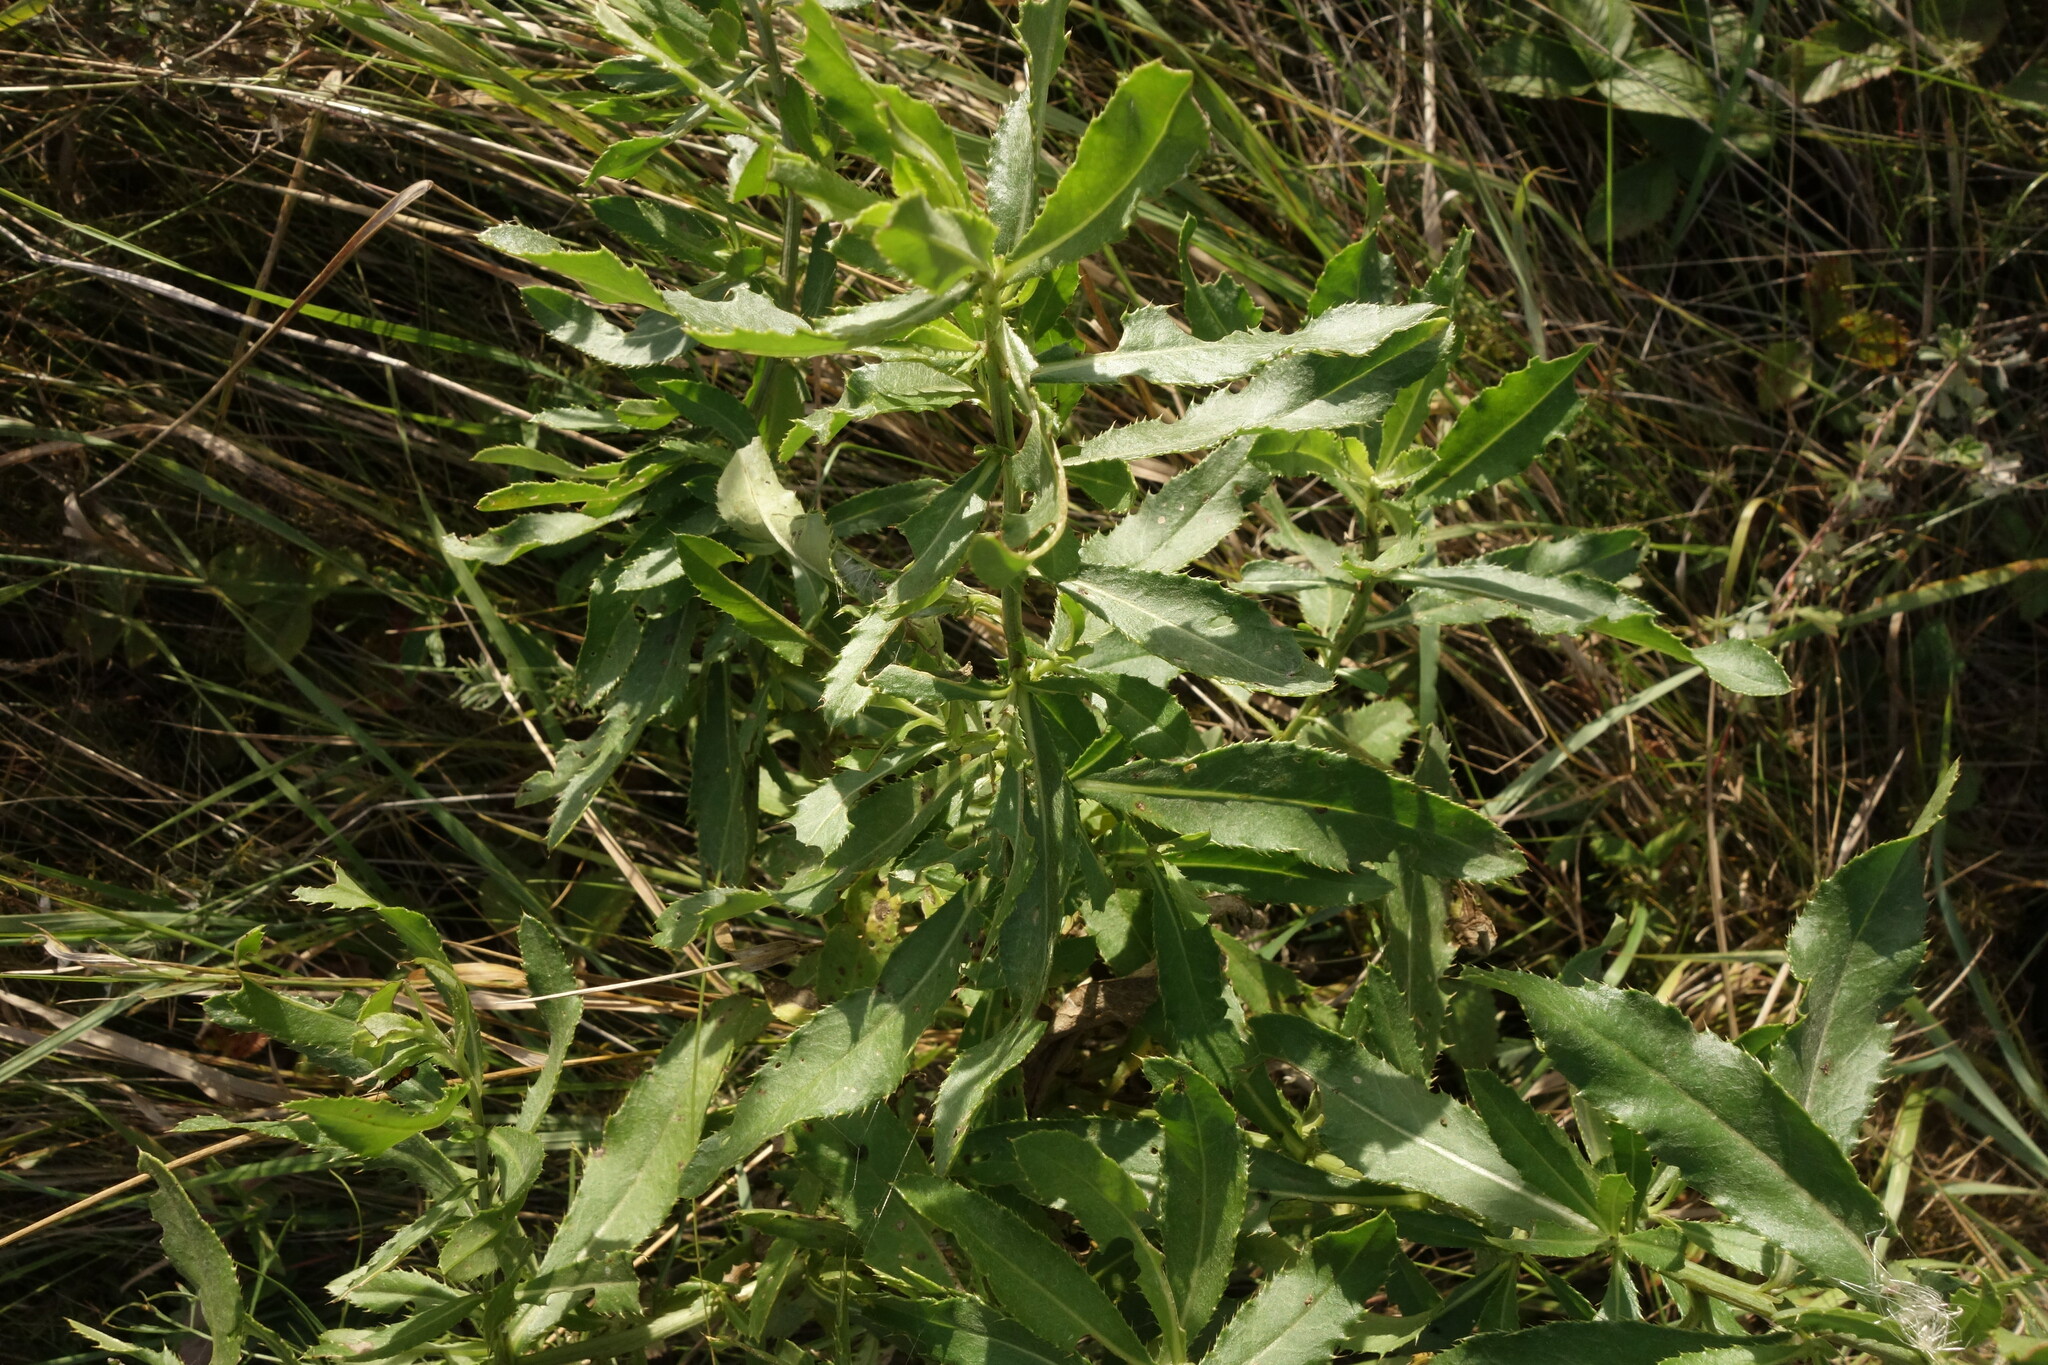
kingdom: Plantae
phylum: Tracheophyta
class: Magnoliopsida
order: Asterales
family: Asteraceae
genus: Cirsium
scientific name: Cirsium arvense
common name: Creeping thistle
